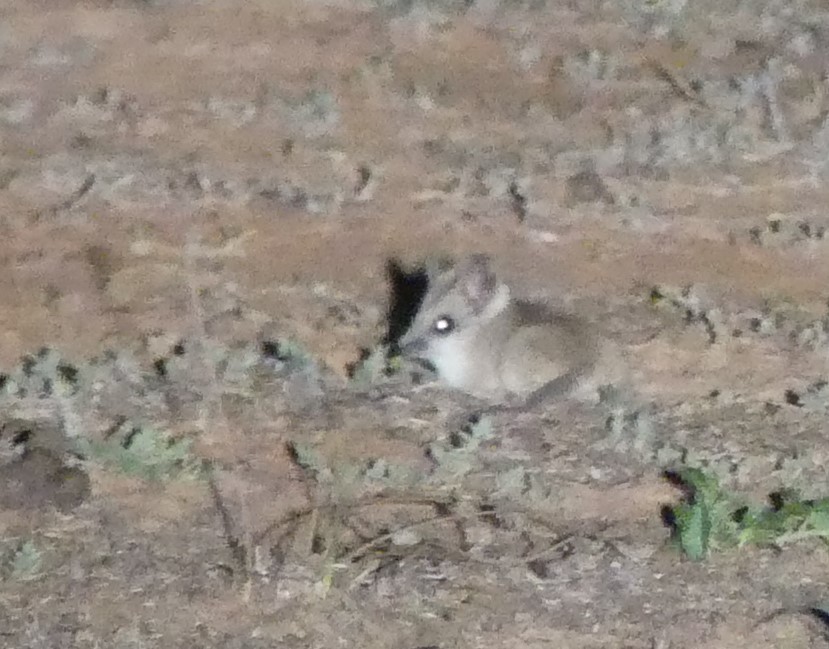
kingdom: Animalia
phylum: Chordata
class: Mammalia
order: Dasyuromorphia
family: Dasyuridae
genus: Sminthopsis
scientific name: Sminthopsis crassicaudata
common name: Fat-tailed dunnart
